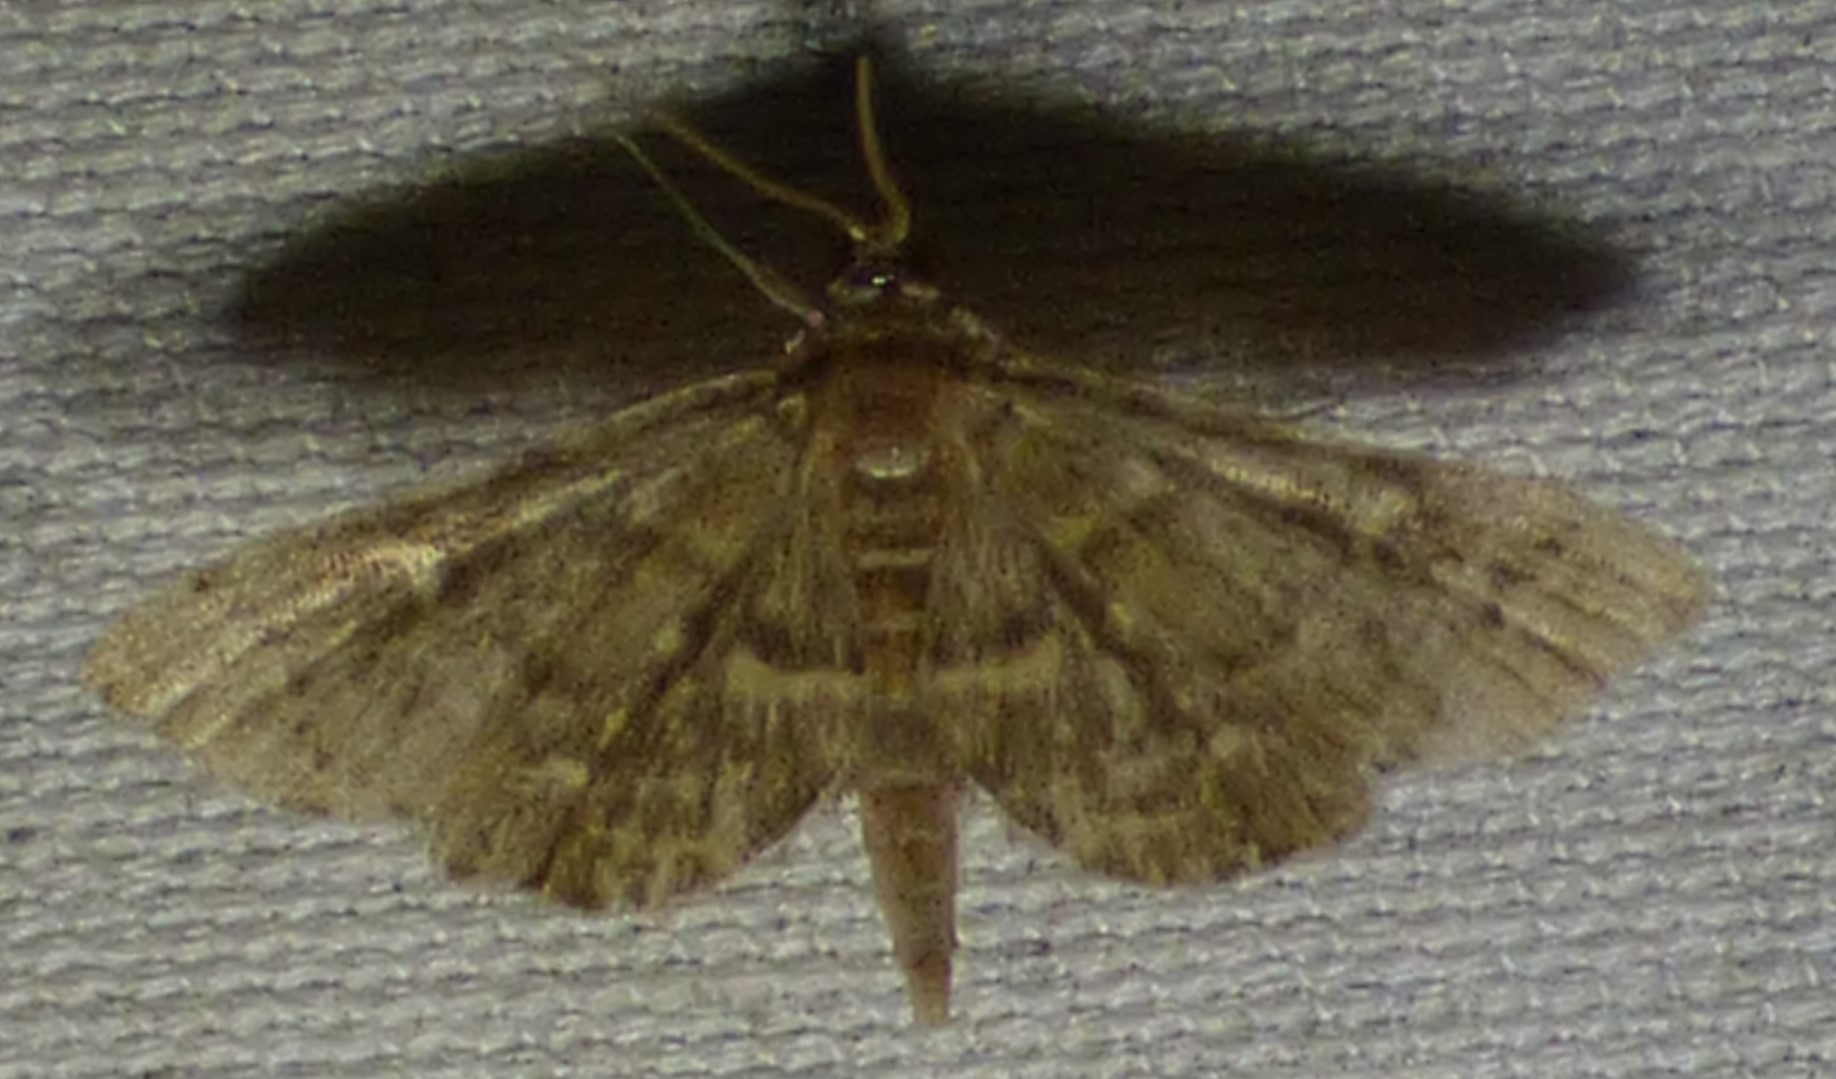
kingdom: Animalia
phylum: Arthropoda
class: Insecta
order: Lepidoptera
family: Crambidae
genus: Anageshna
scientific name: Anageshna primordialis
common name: Yellow-spotted webworm moth
